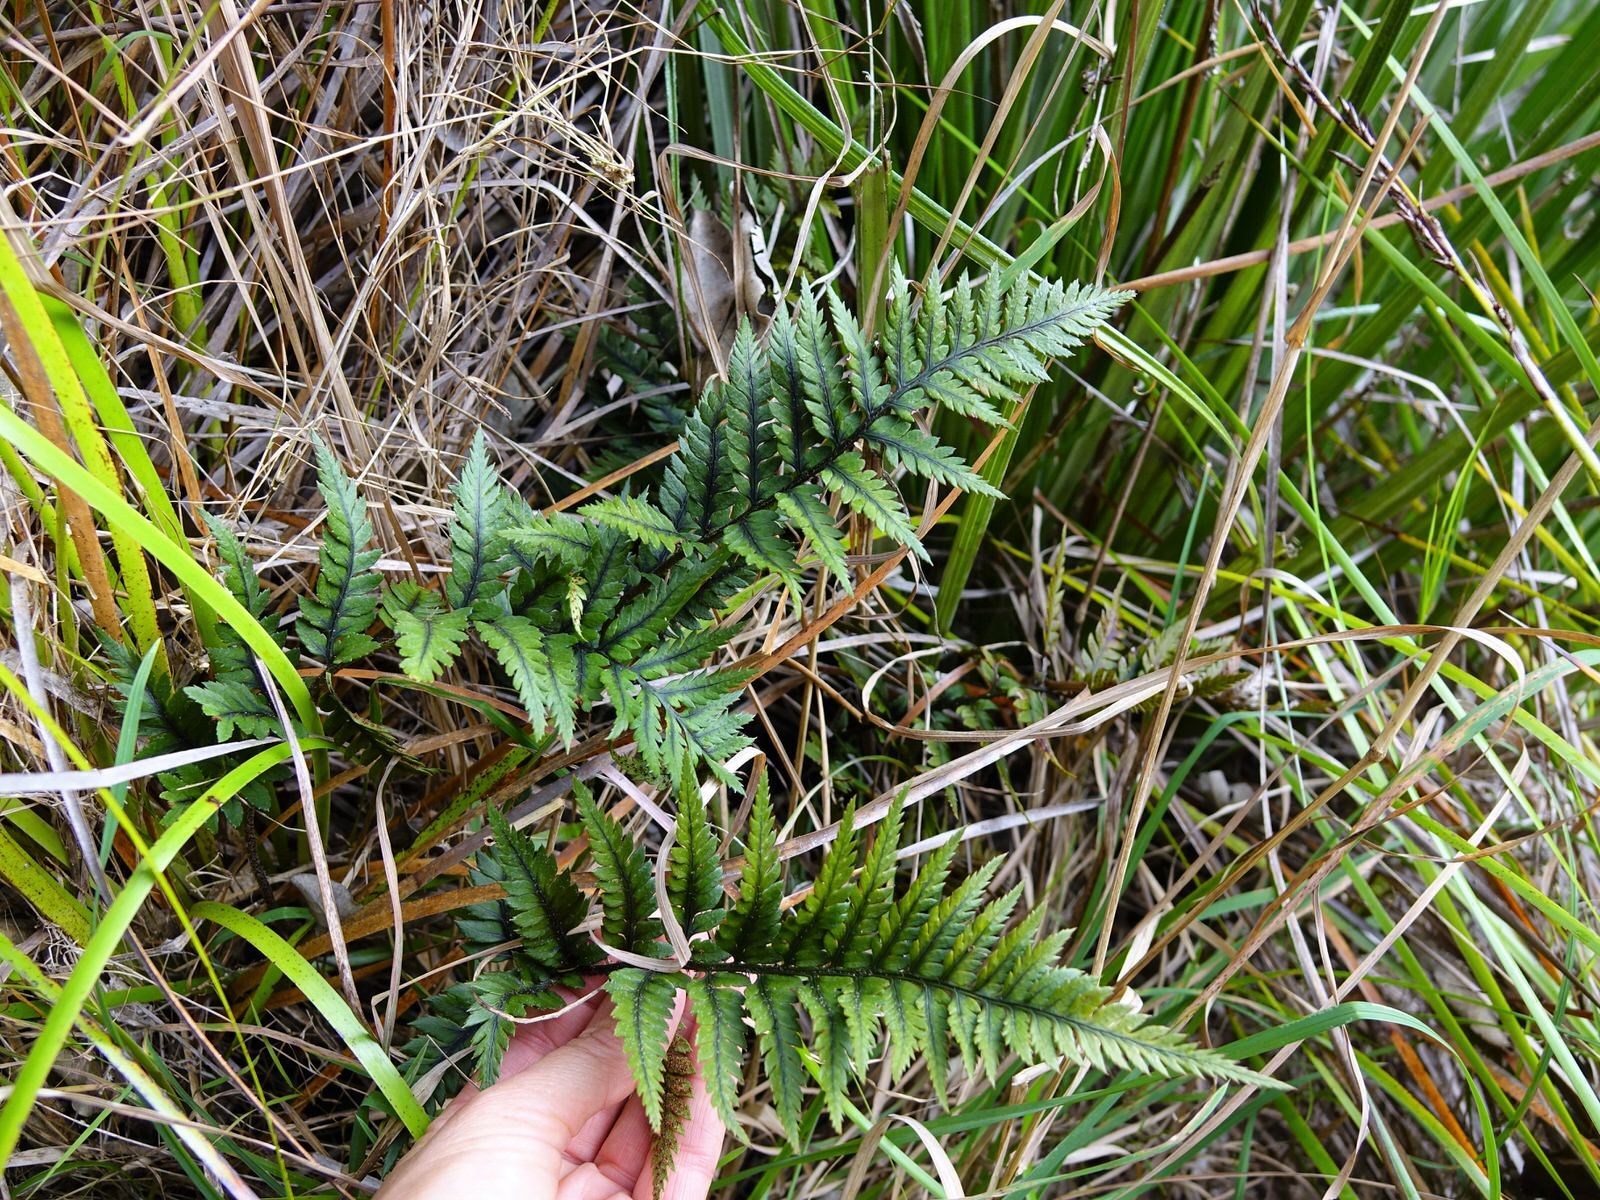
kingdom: Plantae
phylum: Tracheophyta
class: Polypodiopsida
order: Polypodiales
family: Dryopteridaceae
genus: Polystichum
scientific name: Polystichum neozelandicum
